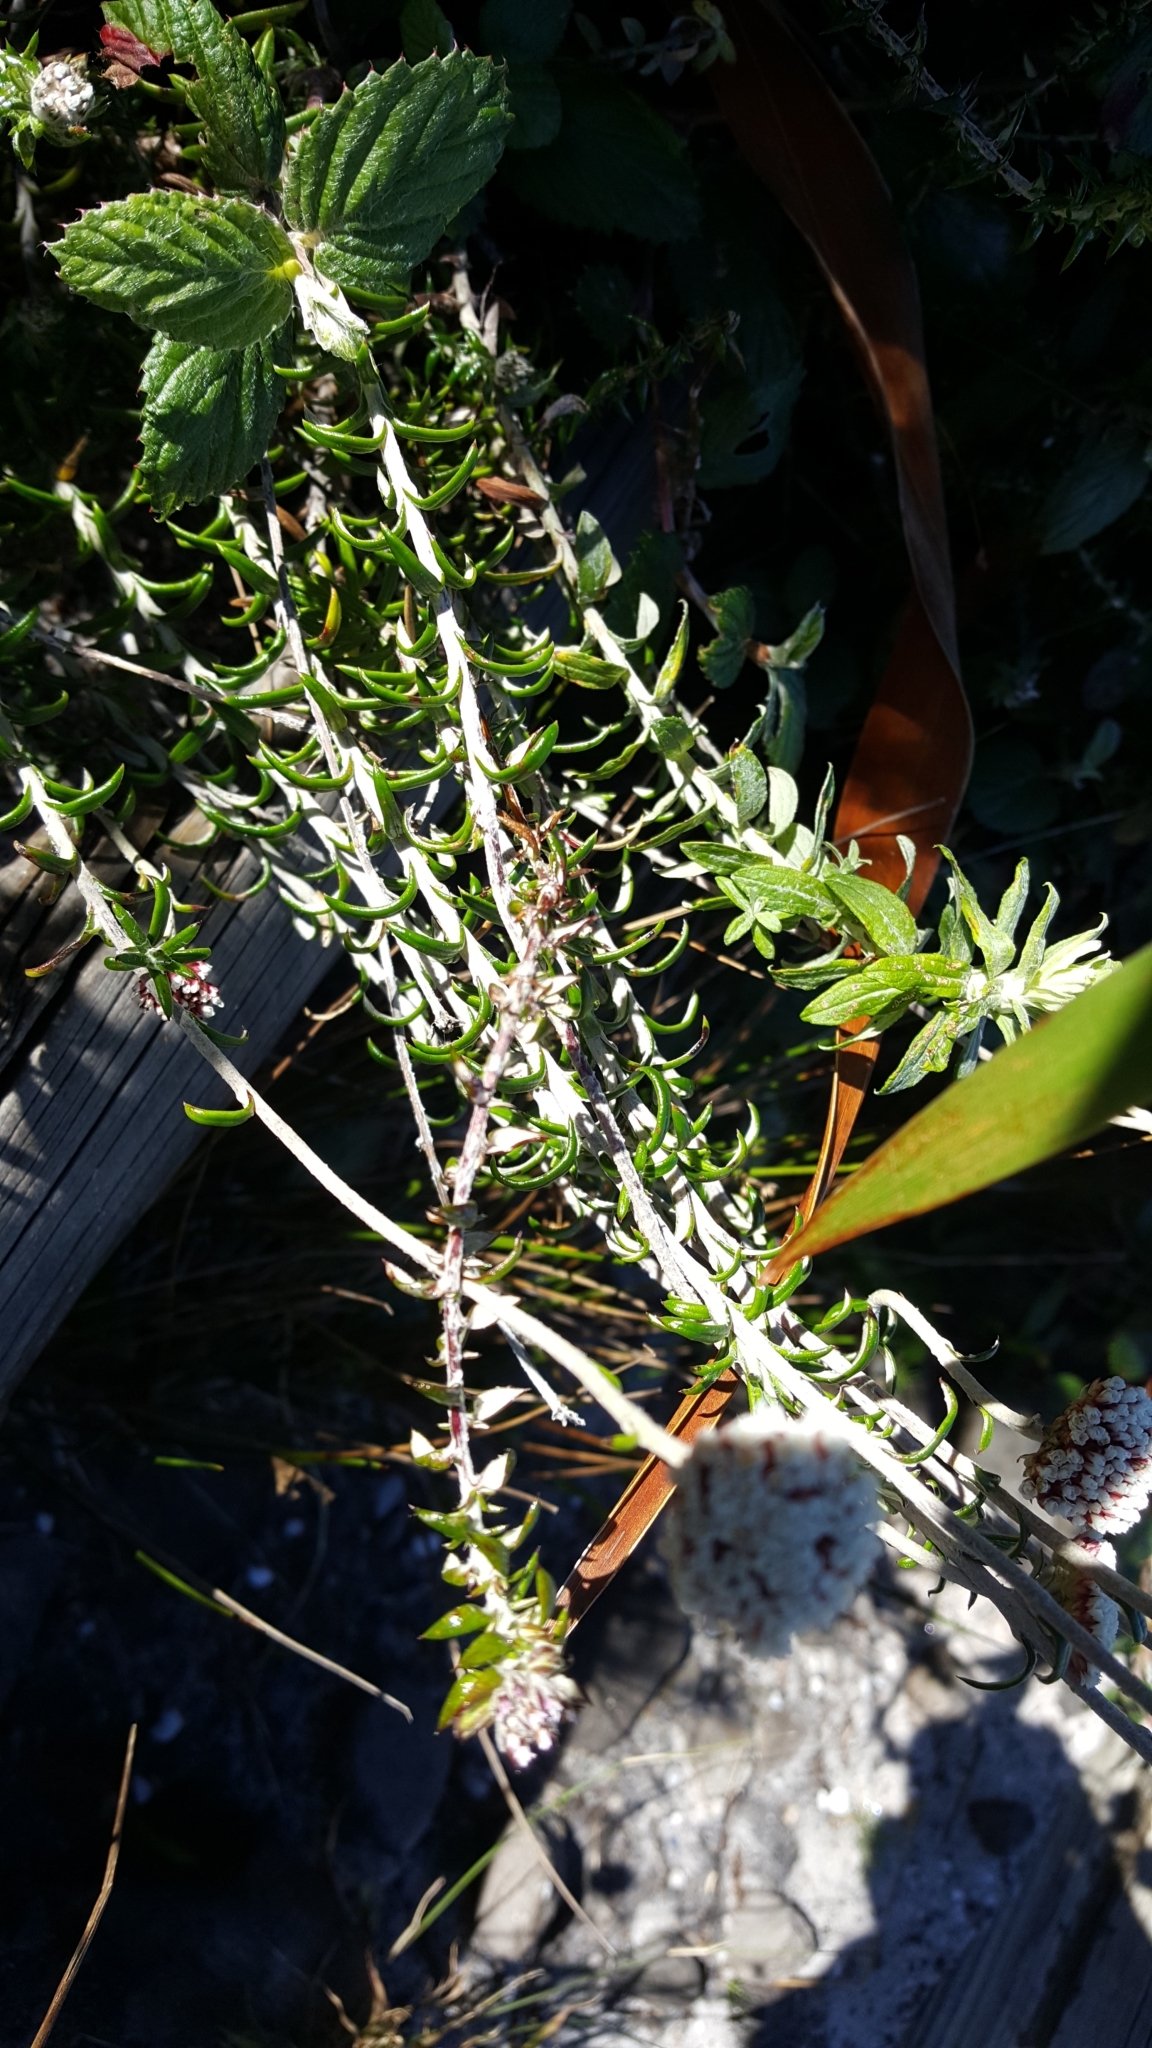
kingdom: Plantae
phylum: Tracheophyta
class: Magnoliopsida
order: Asterales
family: Asteraceae
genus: Anaxeton
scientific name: Anaxeton arborescens
